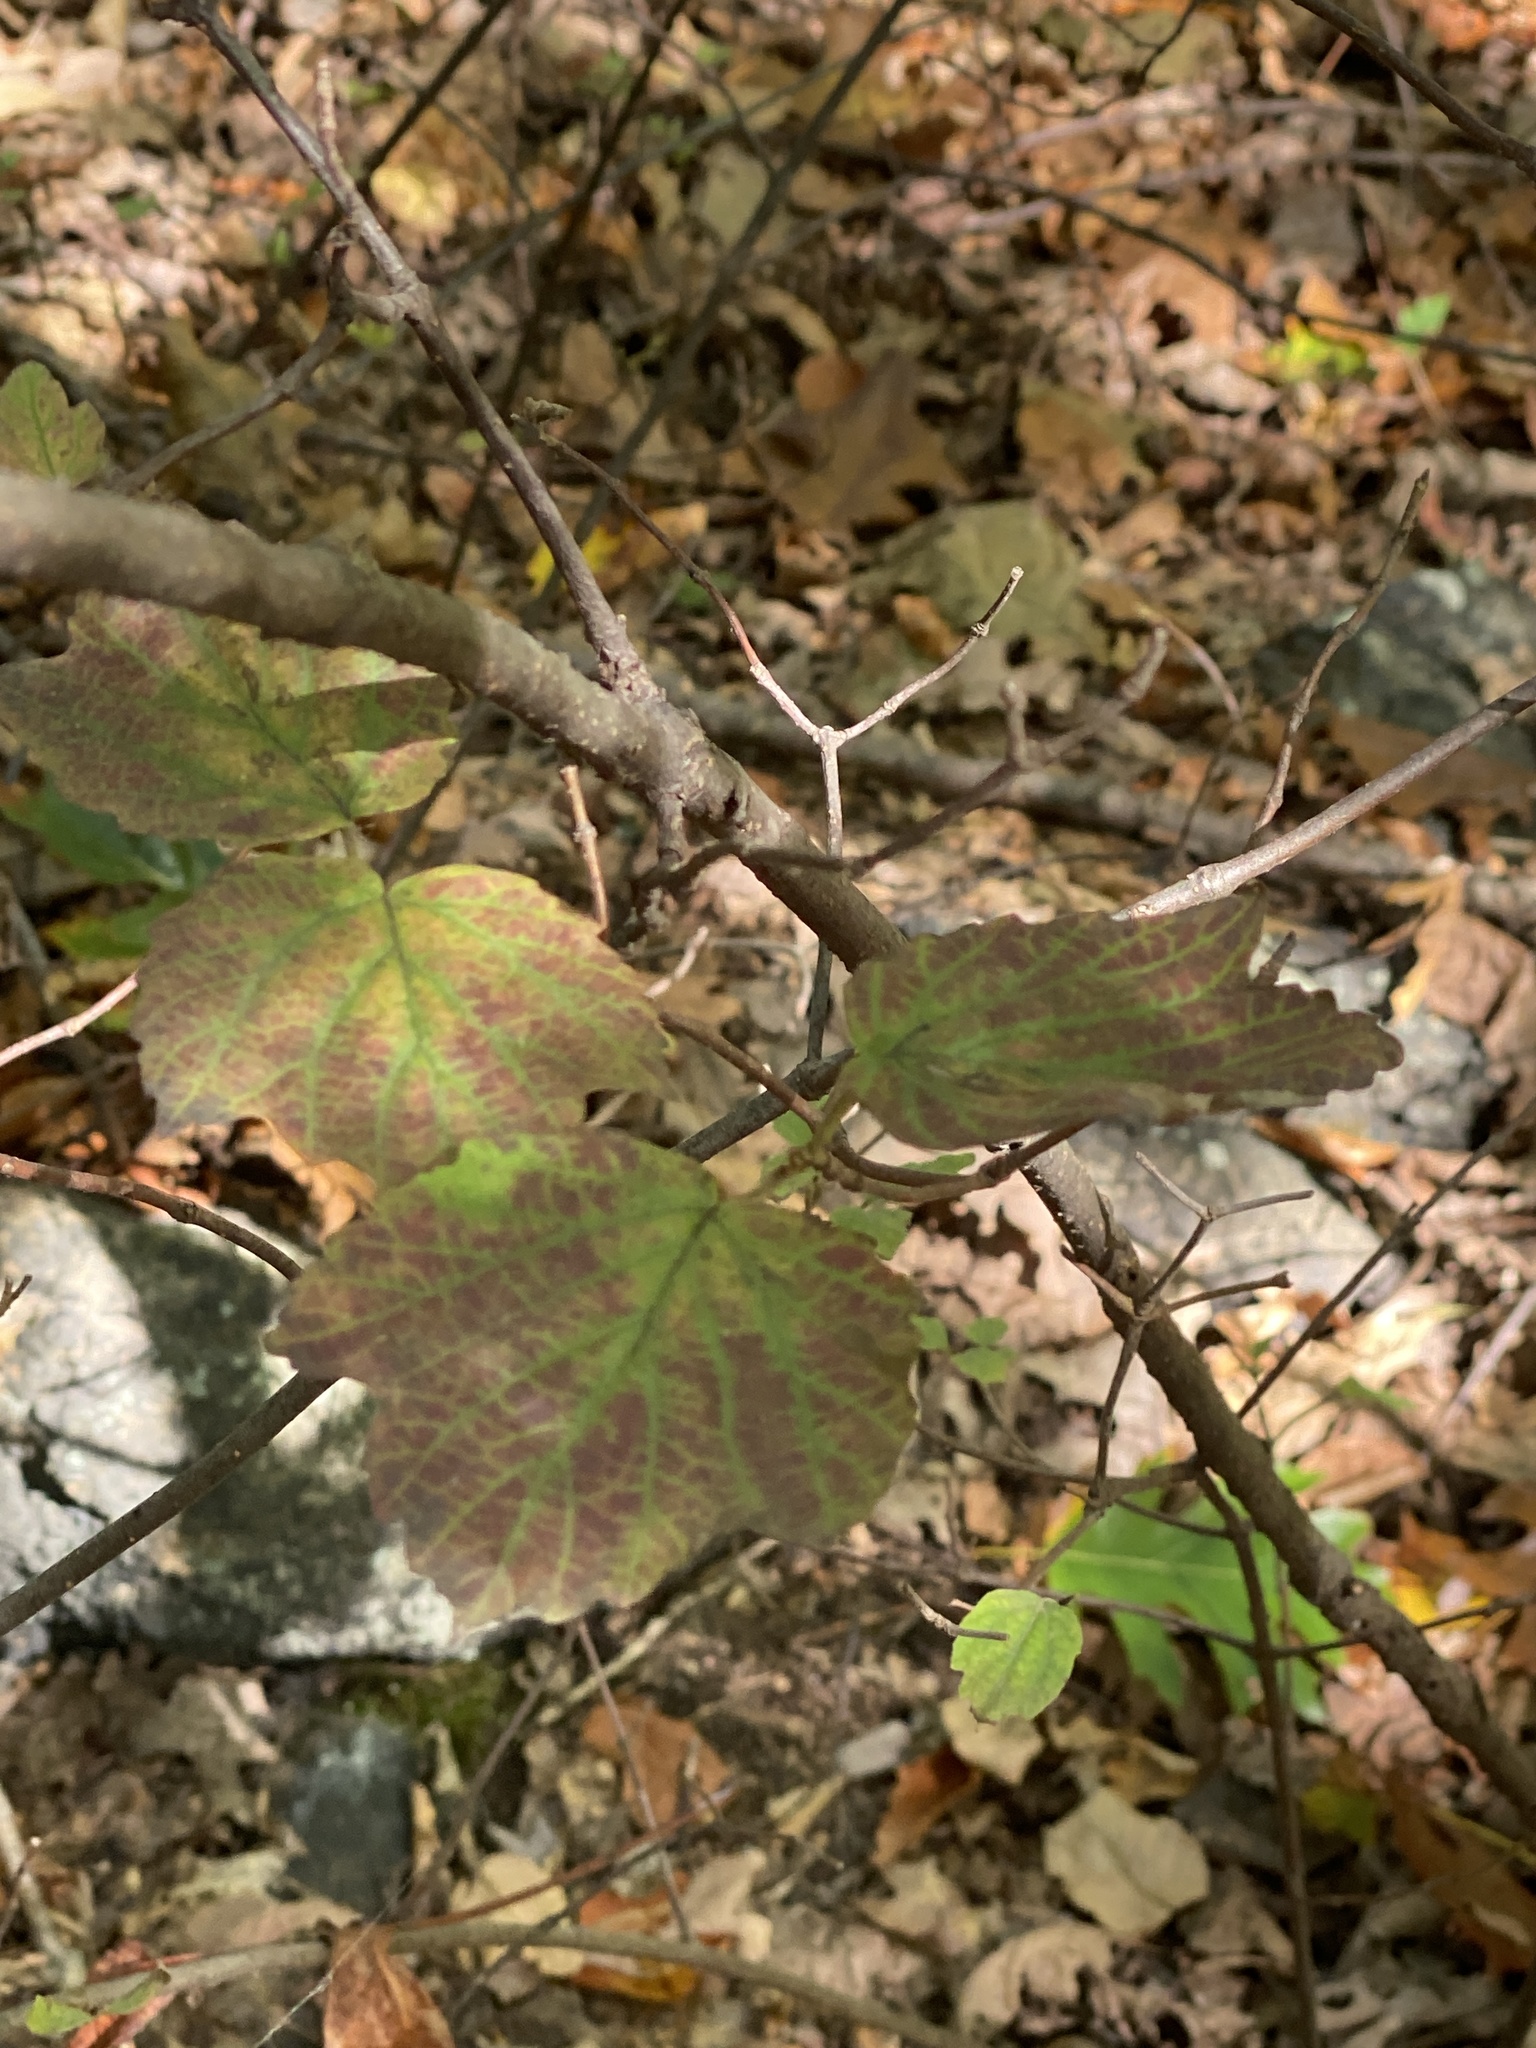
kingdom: Plantae
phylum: Tracheophyta
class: Magnoliopsida
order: Dipsacales
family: Viburnaceae
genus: Viburnum
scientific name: Viburnum acerifolium
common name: Dockmackie
